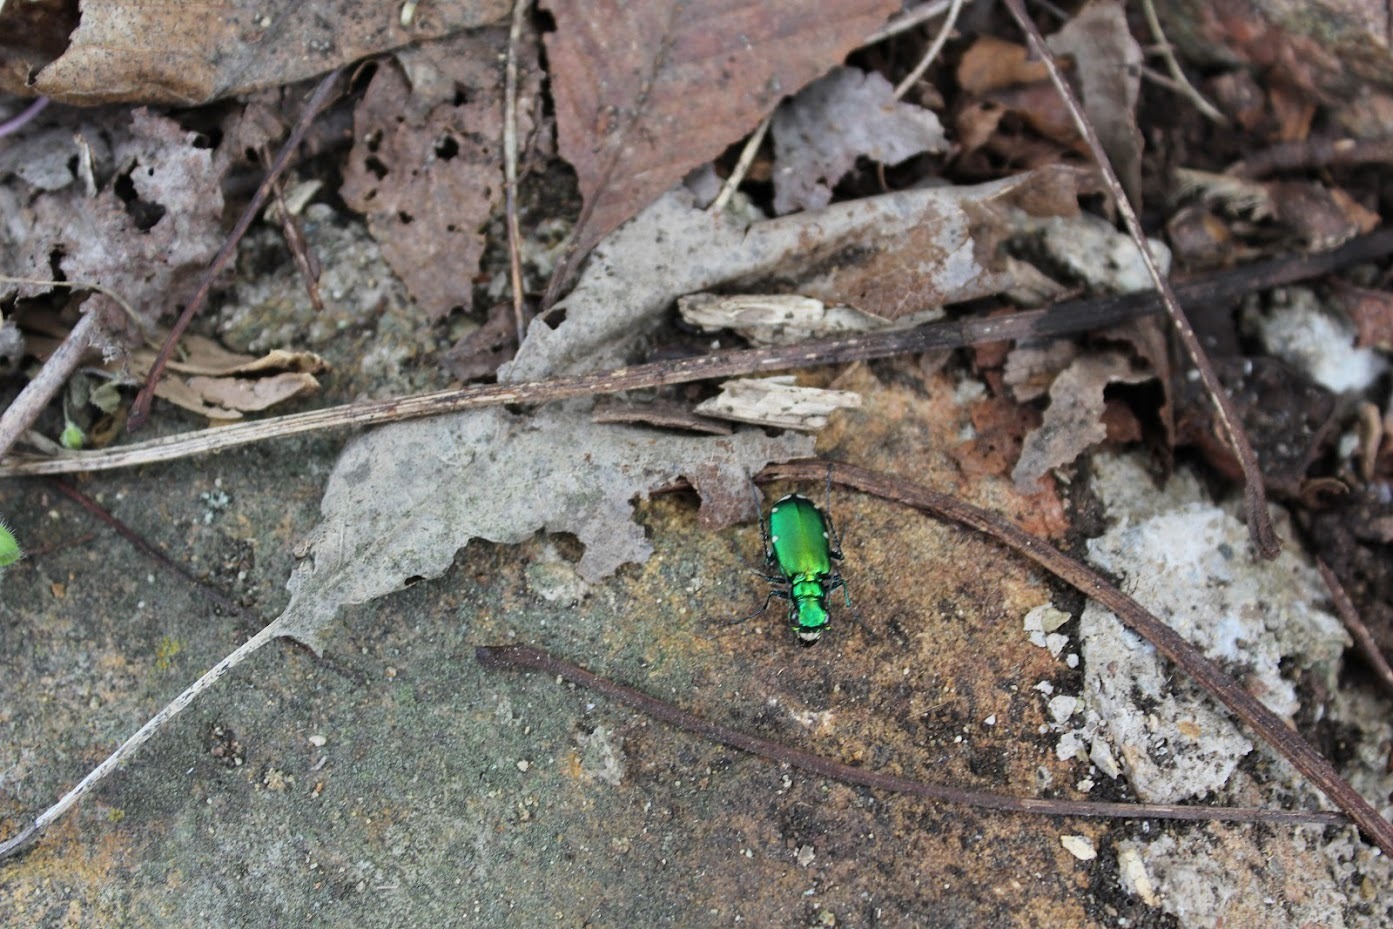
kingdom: Animalia
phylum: Arthropoda
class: Insecta
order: Coleoptera
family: Carabidae
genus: Cicindela
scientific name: Cicindela sexguttata
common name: Six-spotted tiger beetle
